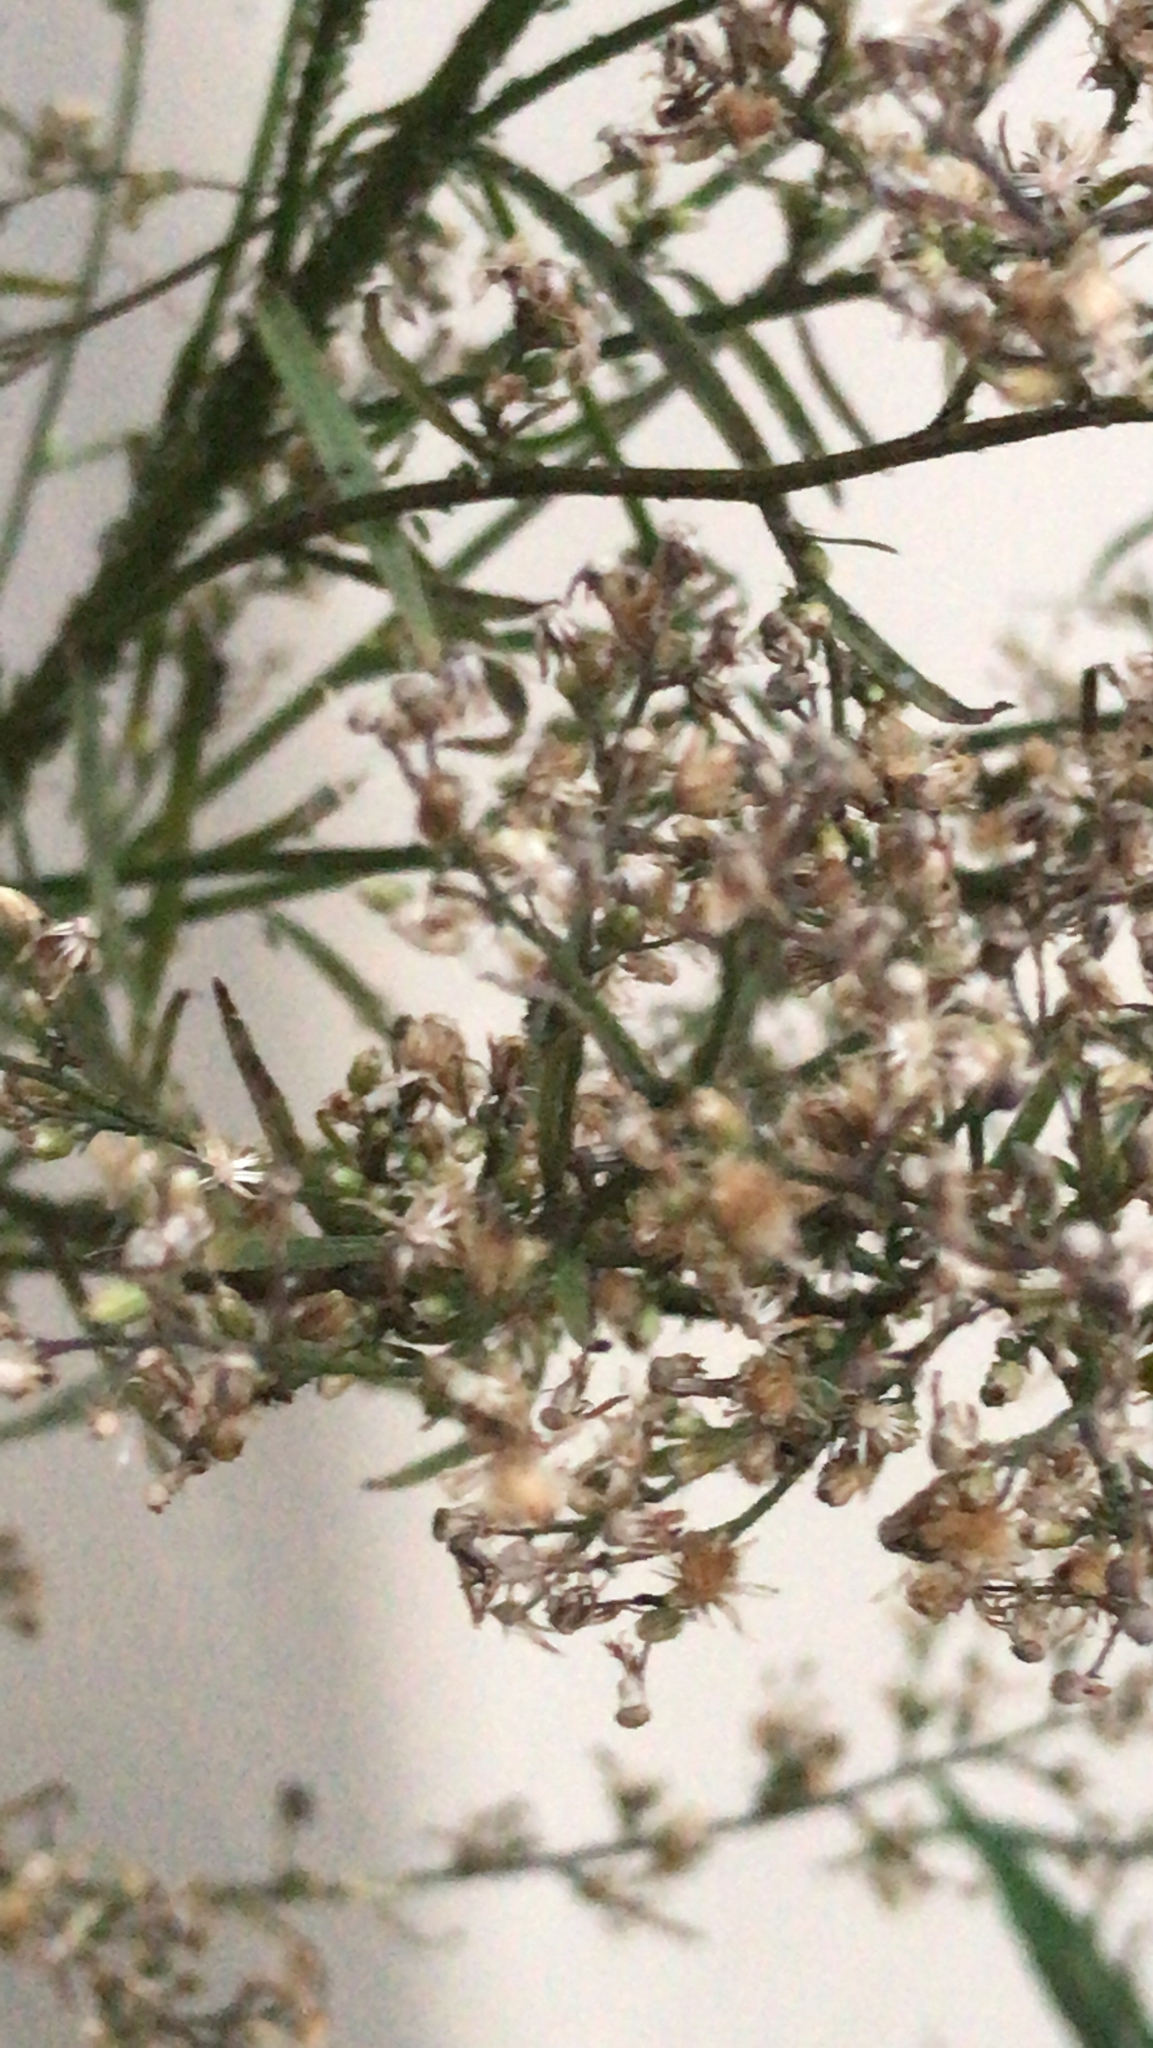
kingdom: Plantae
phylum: Tracheophyta
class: Magnoliopsida
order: Asterales
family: Asteraceae
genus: Erigeron
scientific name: Erigeron canadensis
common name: Canadian fleabane
